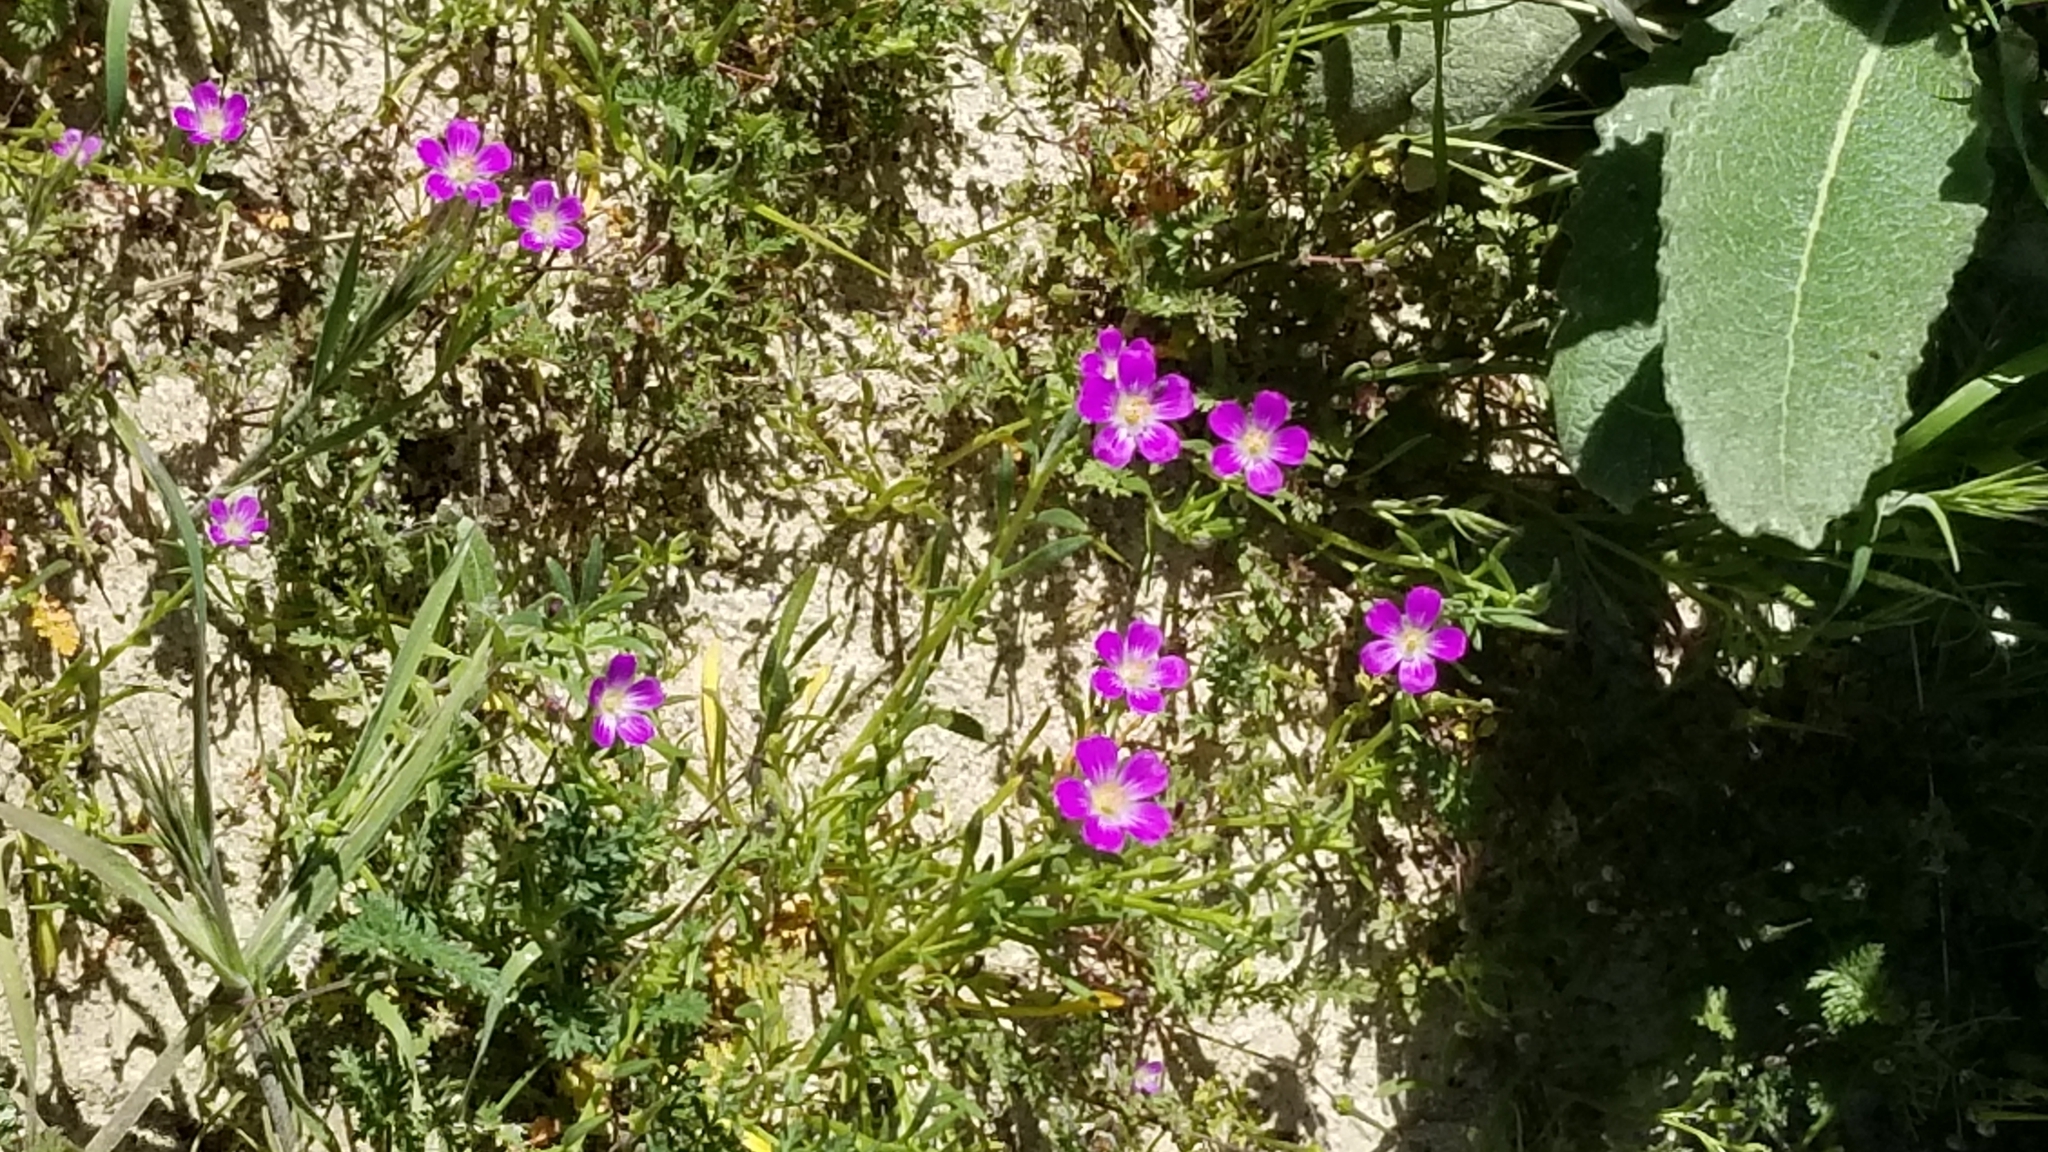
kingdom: Plantae
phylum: Tracheophyta
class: Magnoliopsida
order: Caryophyllales
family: Montiaceae
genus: Calandrinia
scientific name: Calandrinia menziesii
